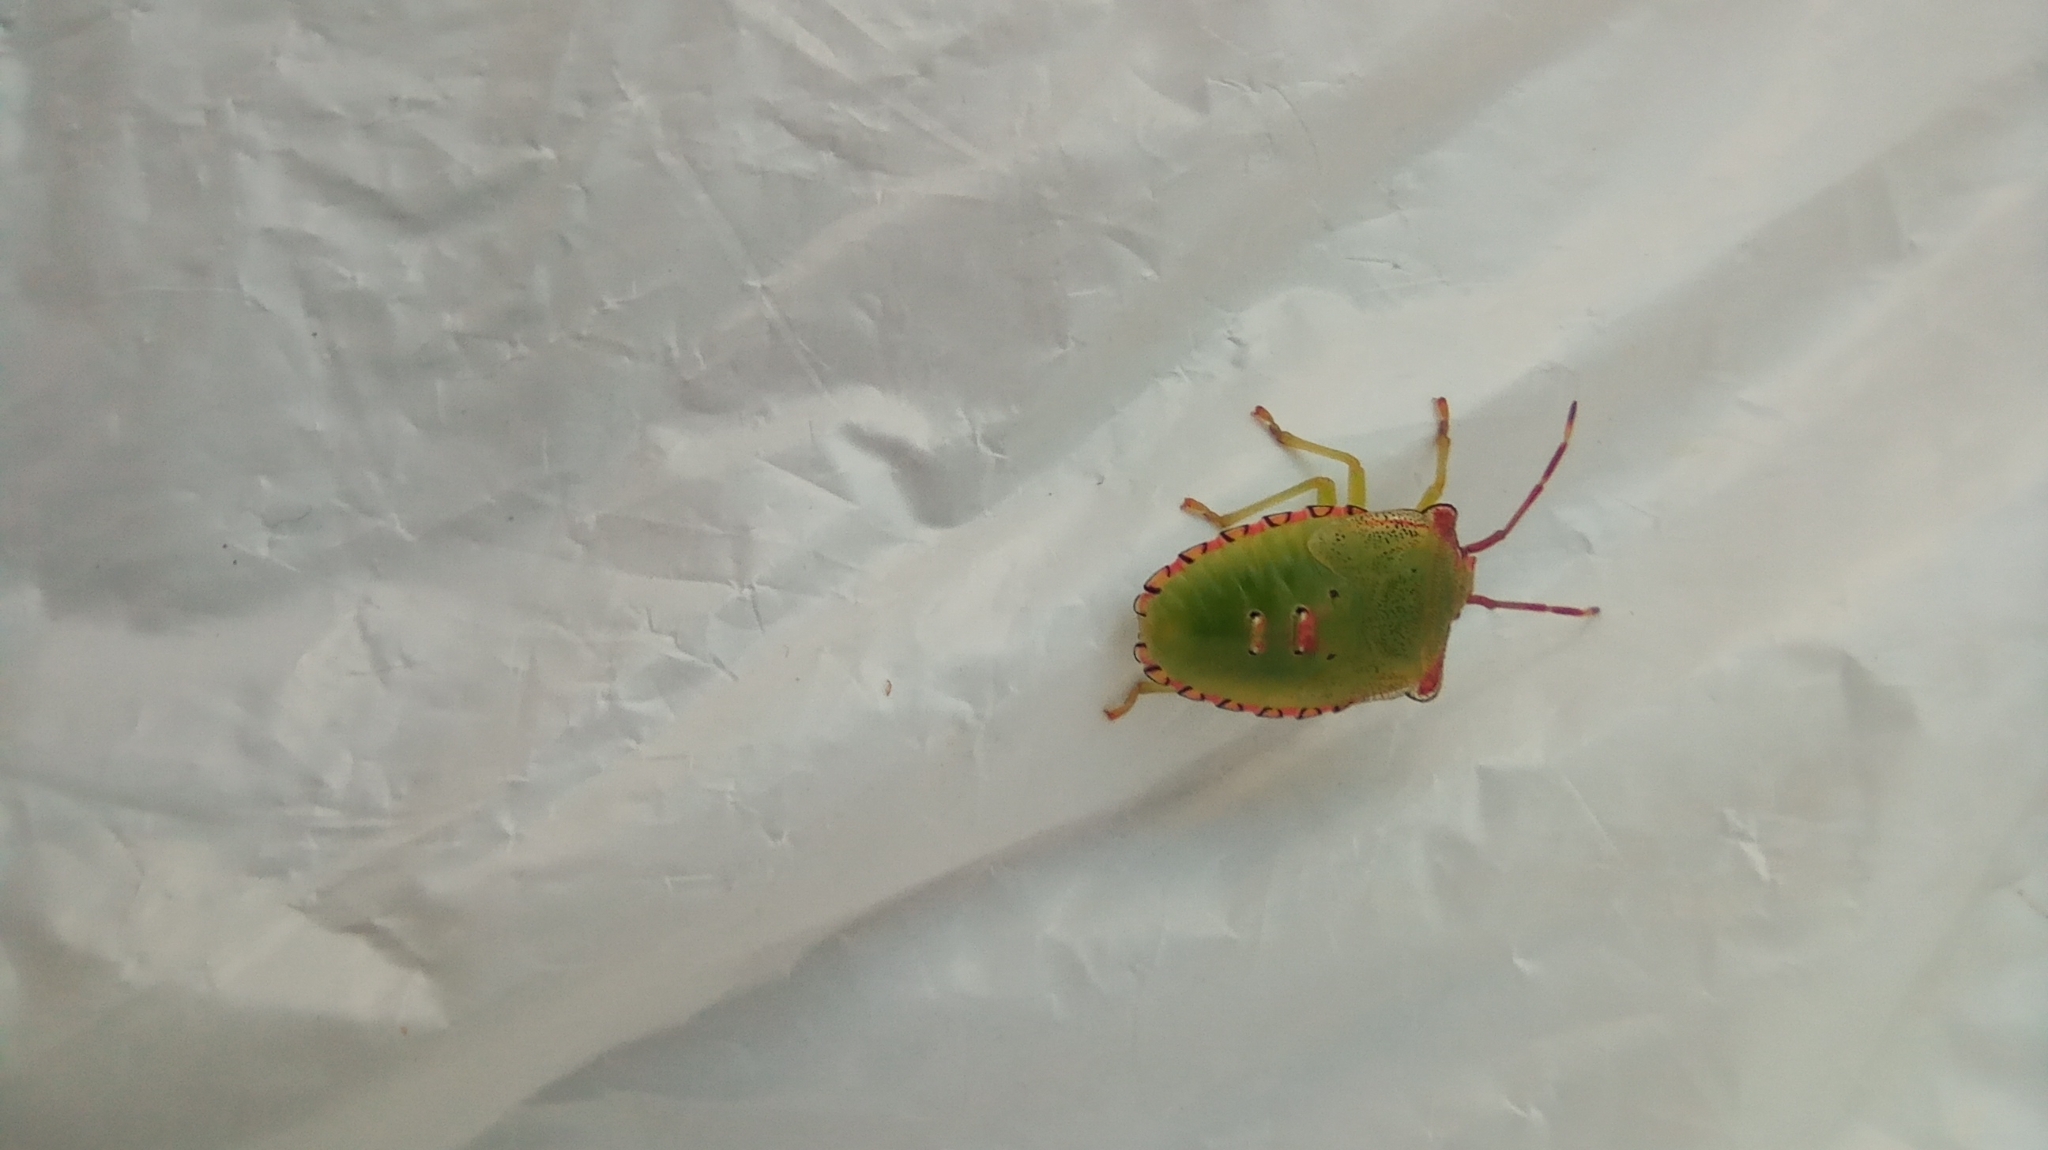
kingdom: Animalia
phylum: Arthropoda
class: Insecta
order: Hemiptera
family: Acanthosomatidae
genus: Acanthosoma
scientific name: Acanthosoma haemorrhoidale
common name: Hawthorn shieldbug
